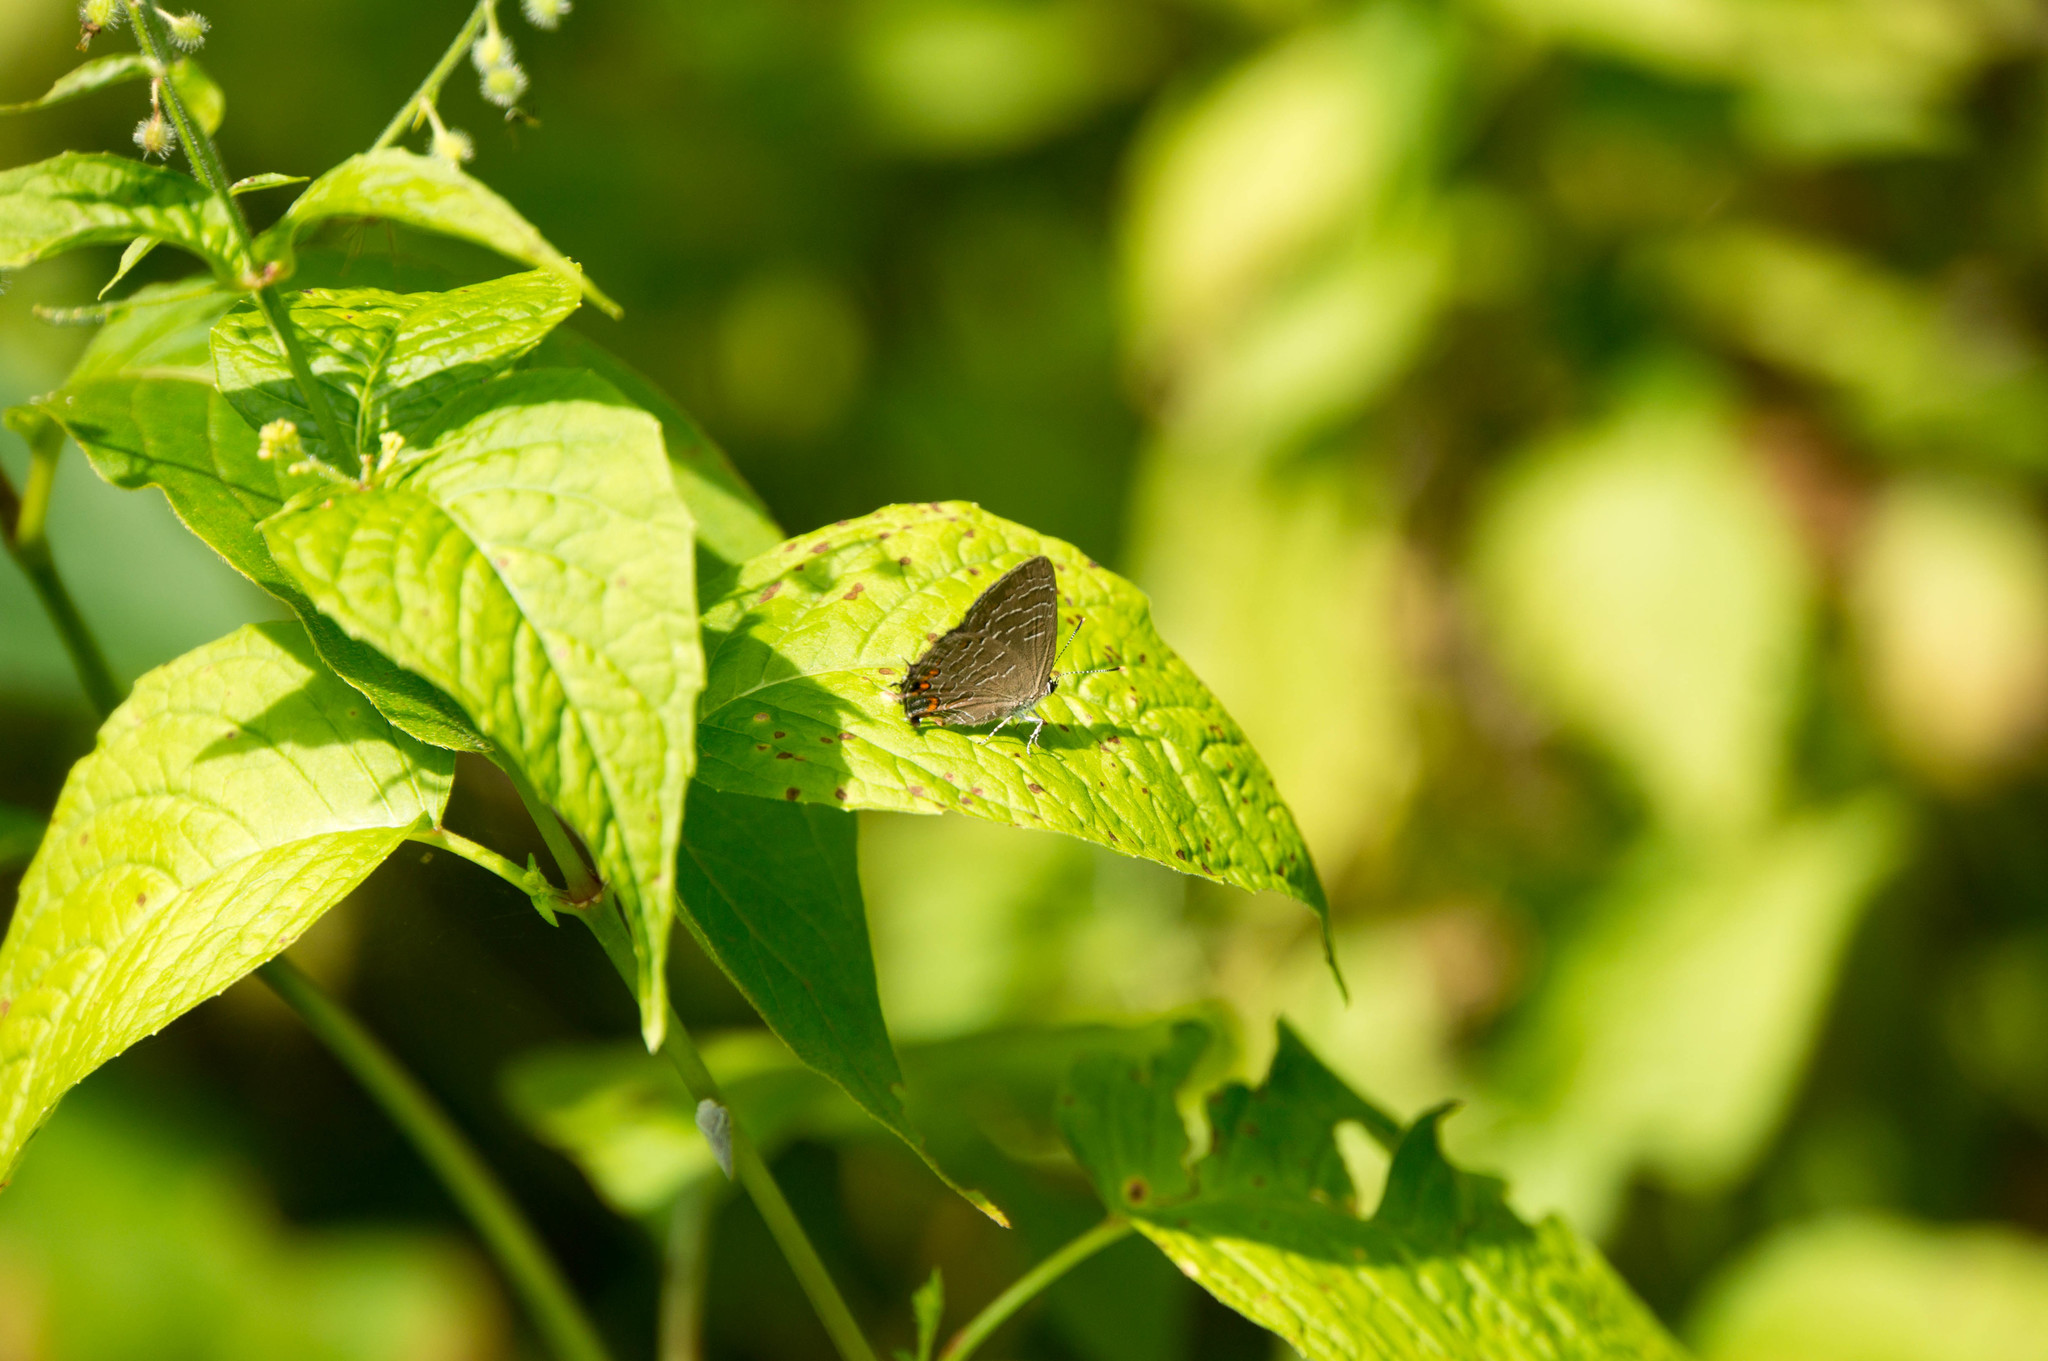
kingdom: Animalia
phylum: Arthropoda
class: Insecta
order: Lepidoptera
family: Lycaenidae
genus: Satyrium
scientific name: Satyrium liparops
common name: Striped hairstreak
